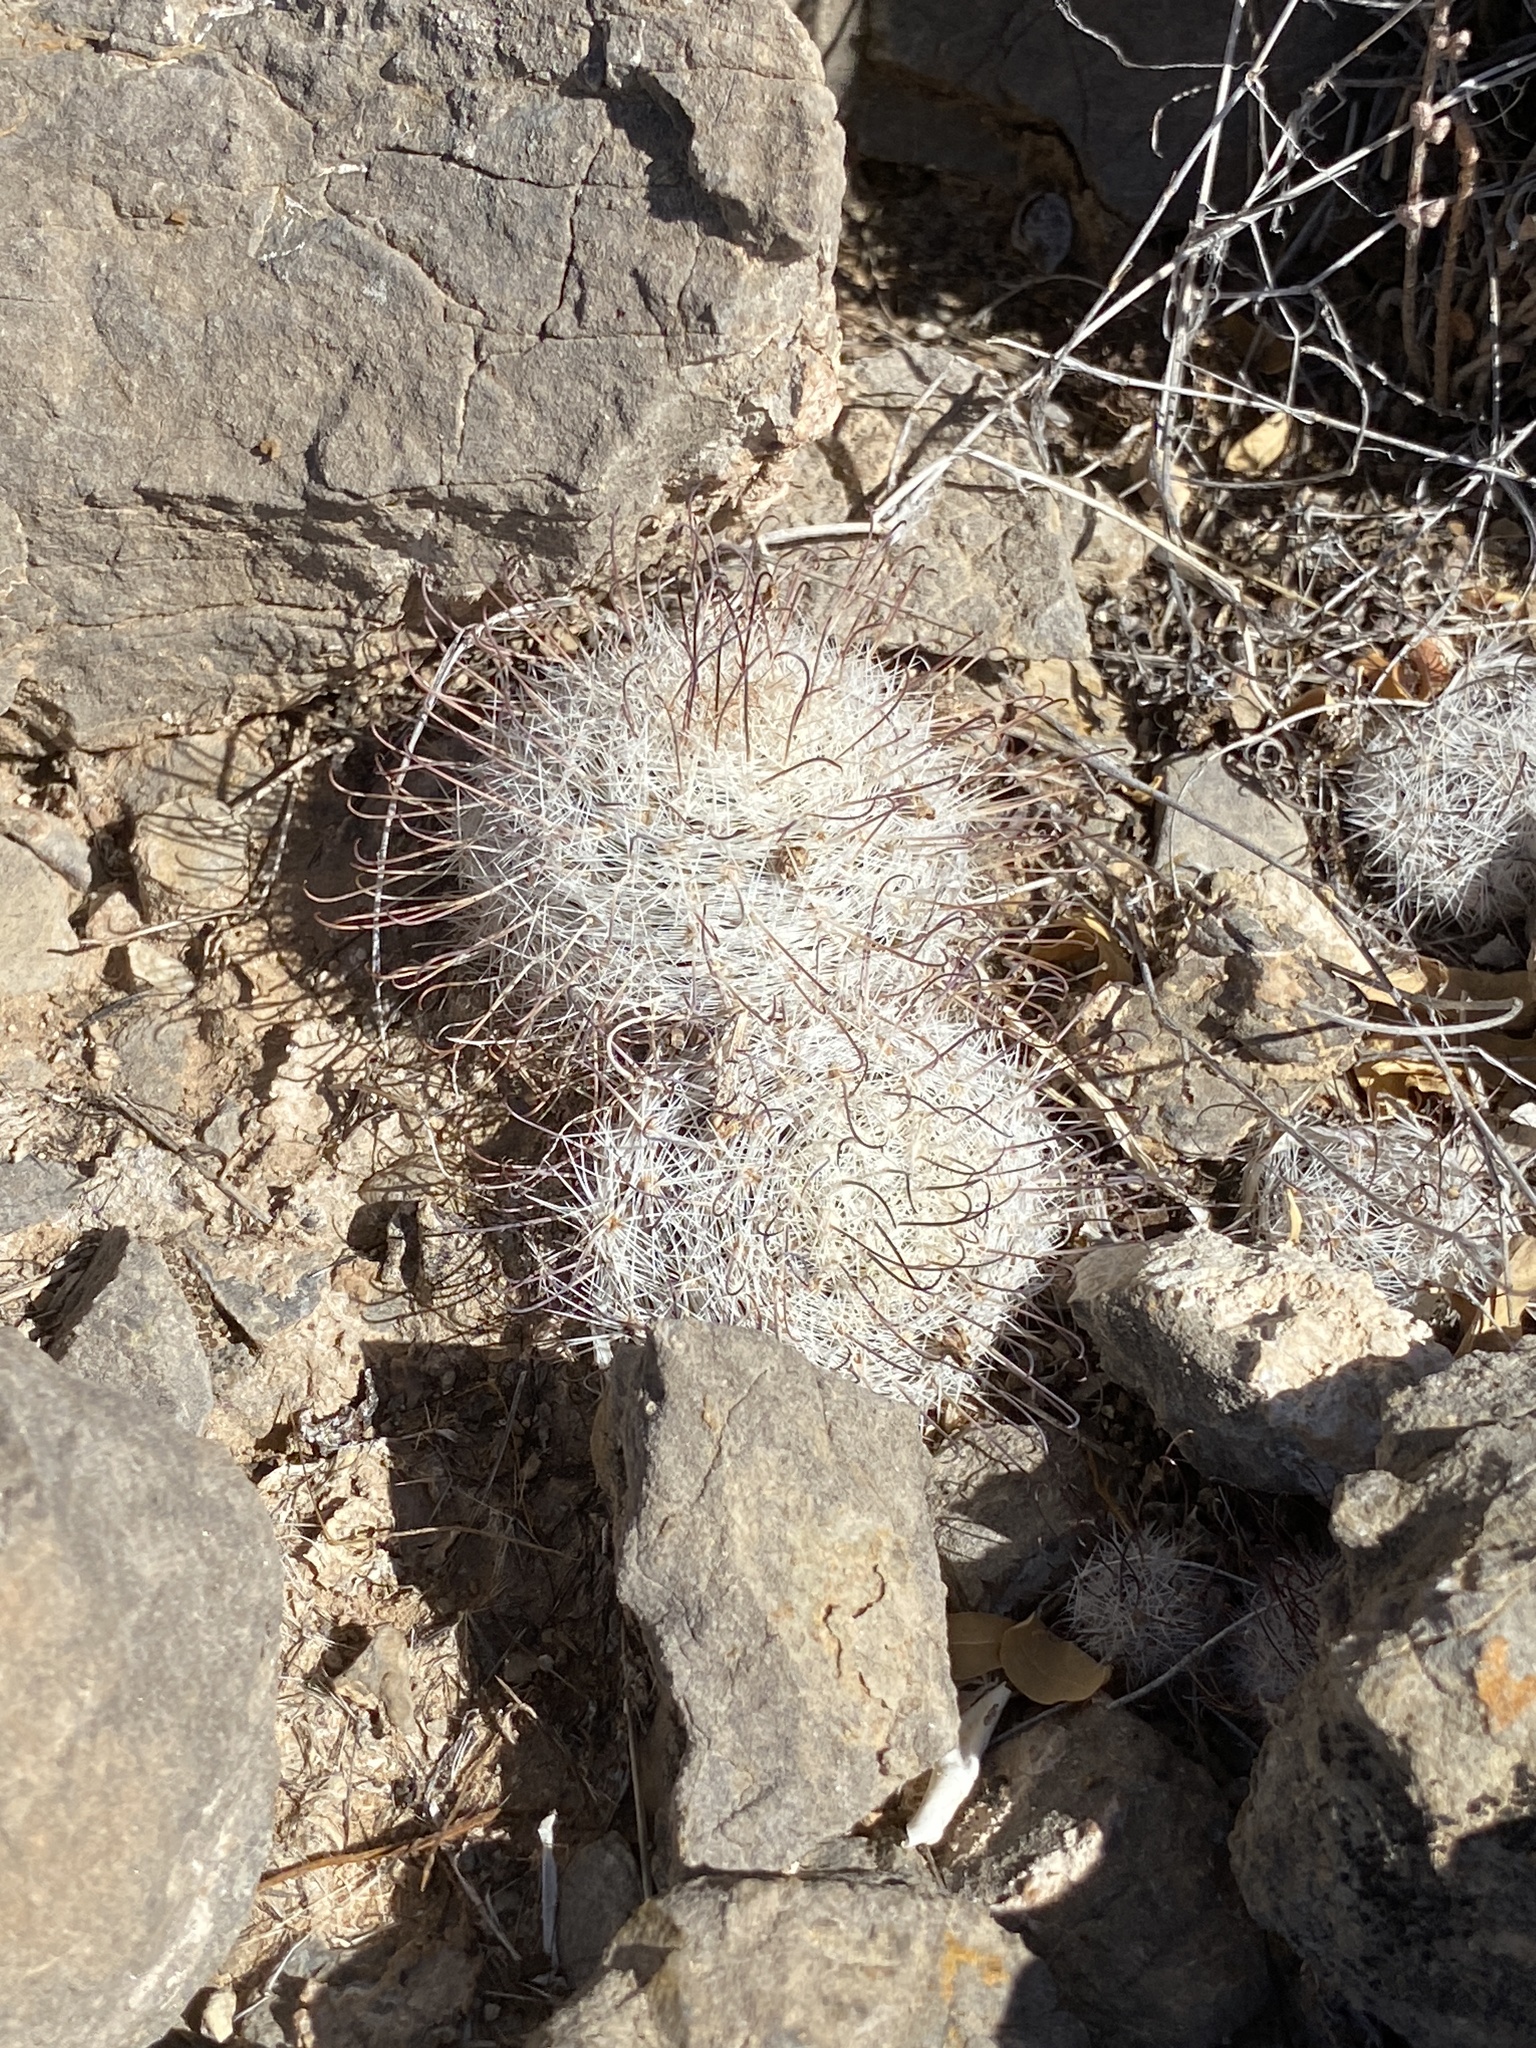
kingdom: Plantae
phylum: Tracheophyta
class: Magnoliopsida
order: Caryophyllales
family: Cactaceae
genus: Cochemiea
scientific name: Cochemiea grahamii
